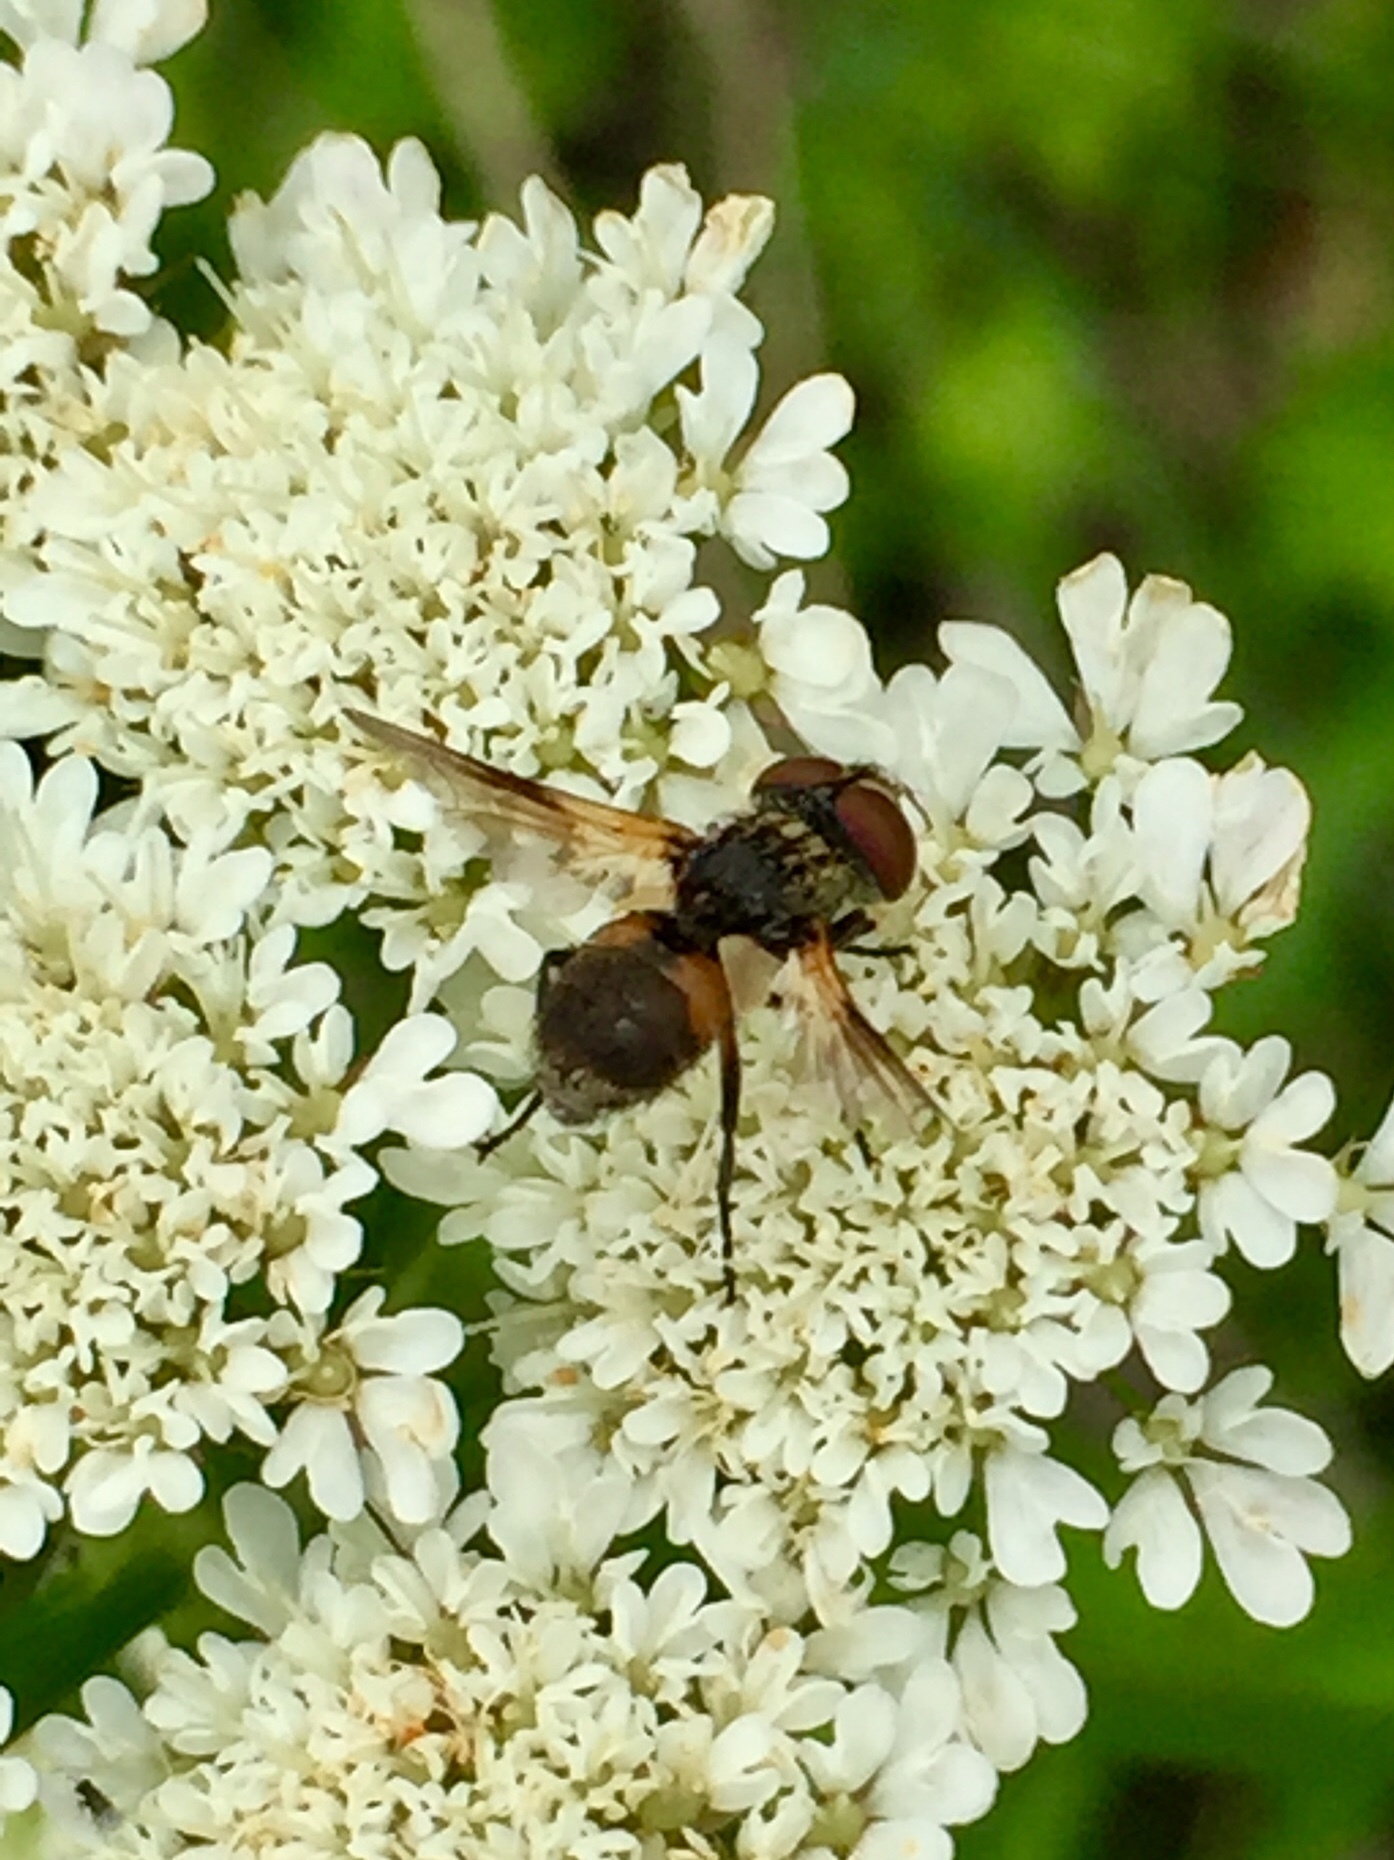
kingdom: Animalia
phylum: Arthropoda
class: Insecta
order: Diptera
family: Tachinidae
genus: Ectophasia
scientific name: Ectophasia
